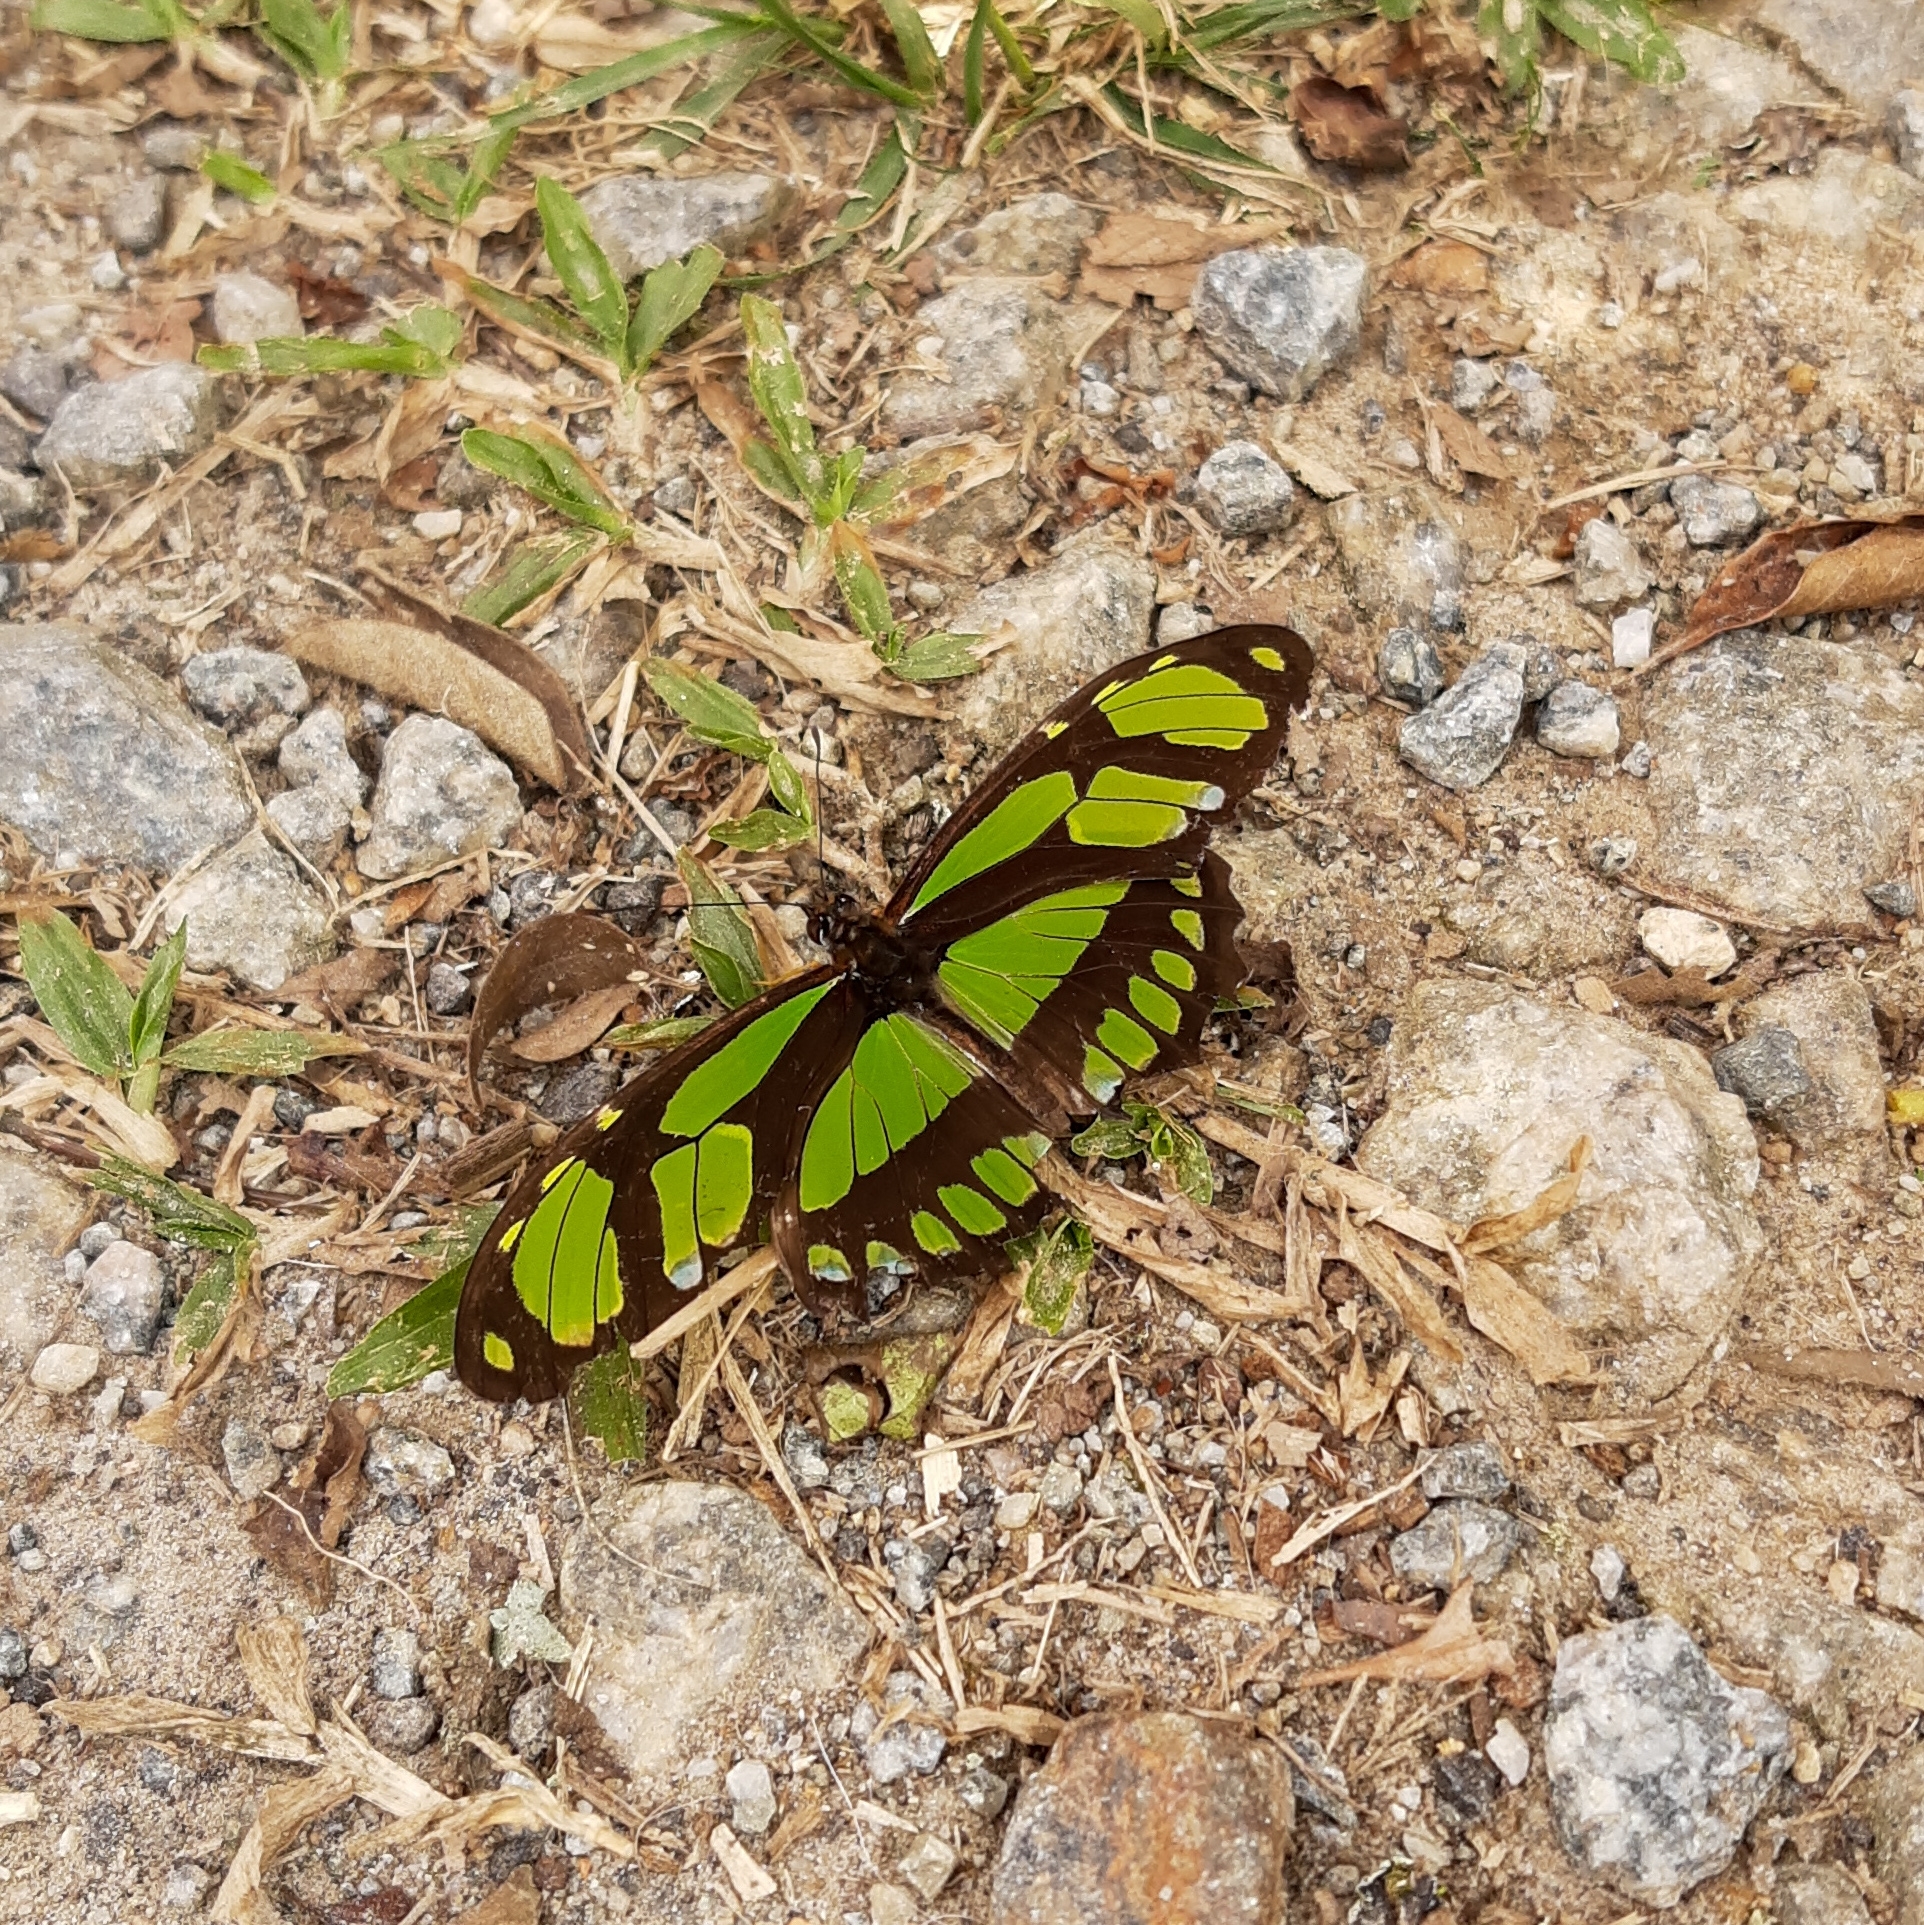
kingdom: Animalia
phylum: Arthropoda
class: Insecta
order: Lepidoptera
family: Nymphalidae
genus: Philaethria
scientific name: Philaethria dido
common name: Scarce bamboo page
